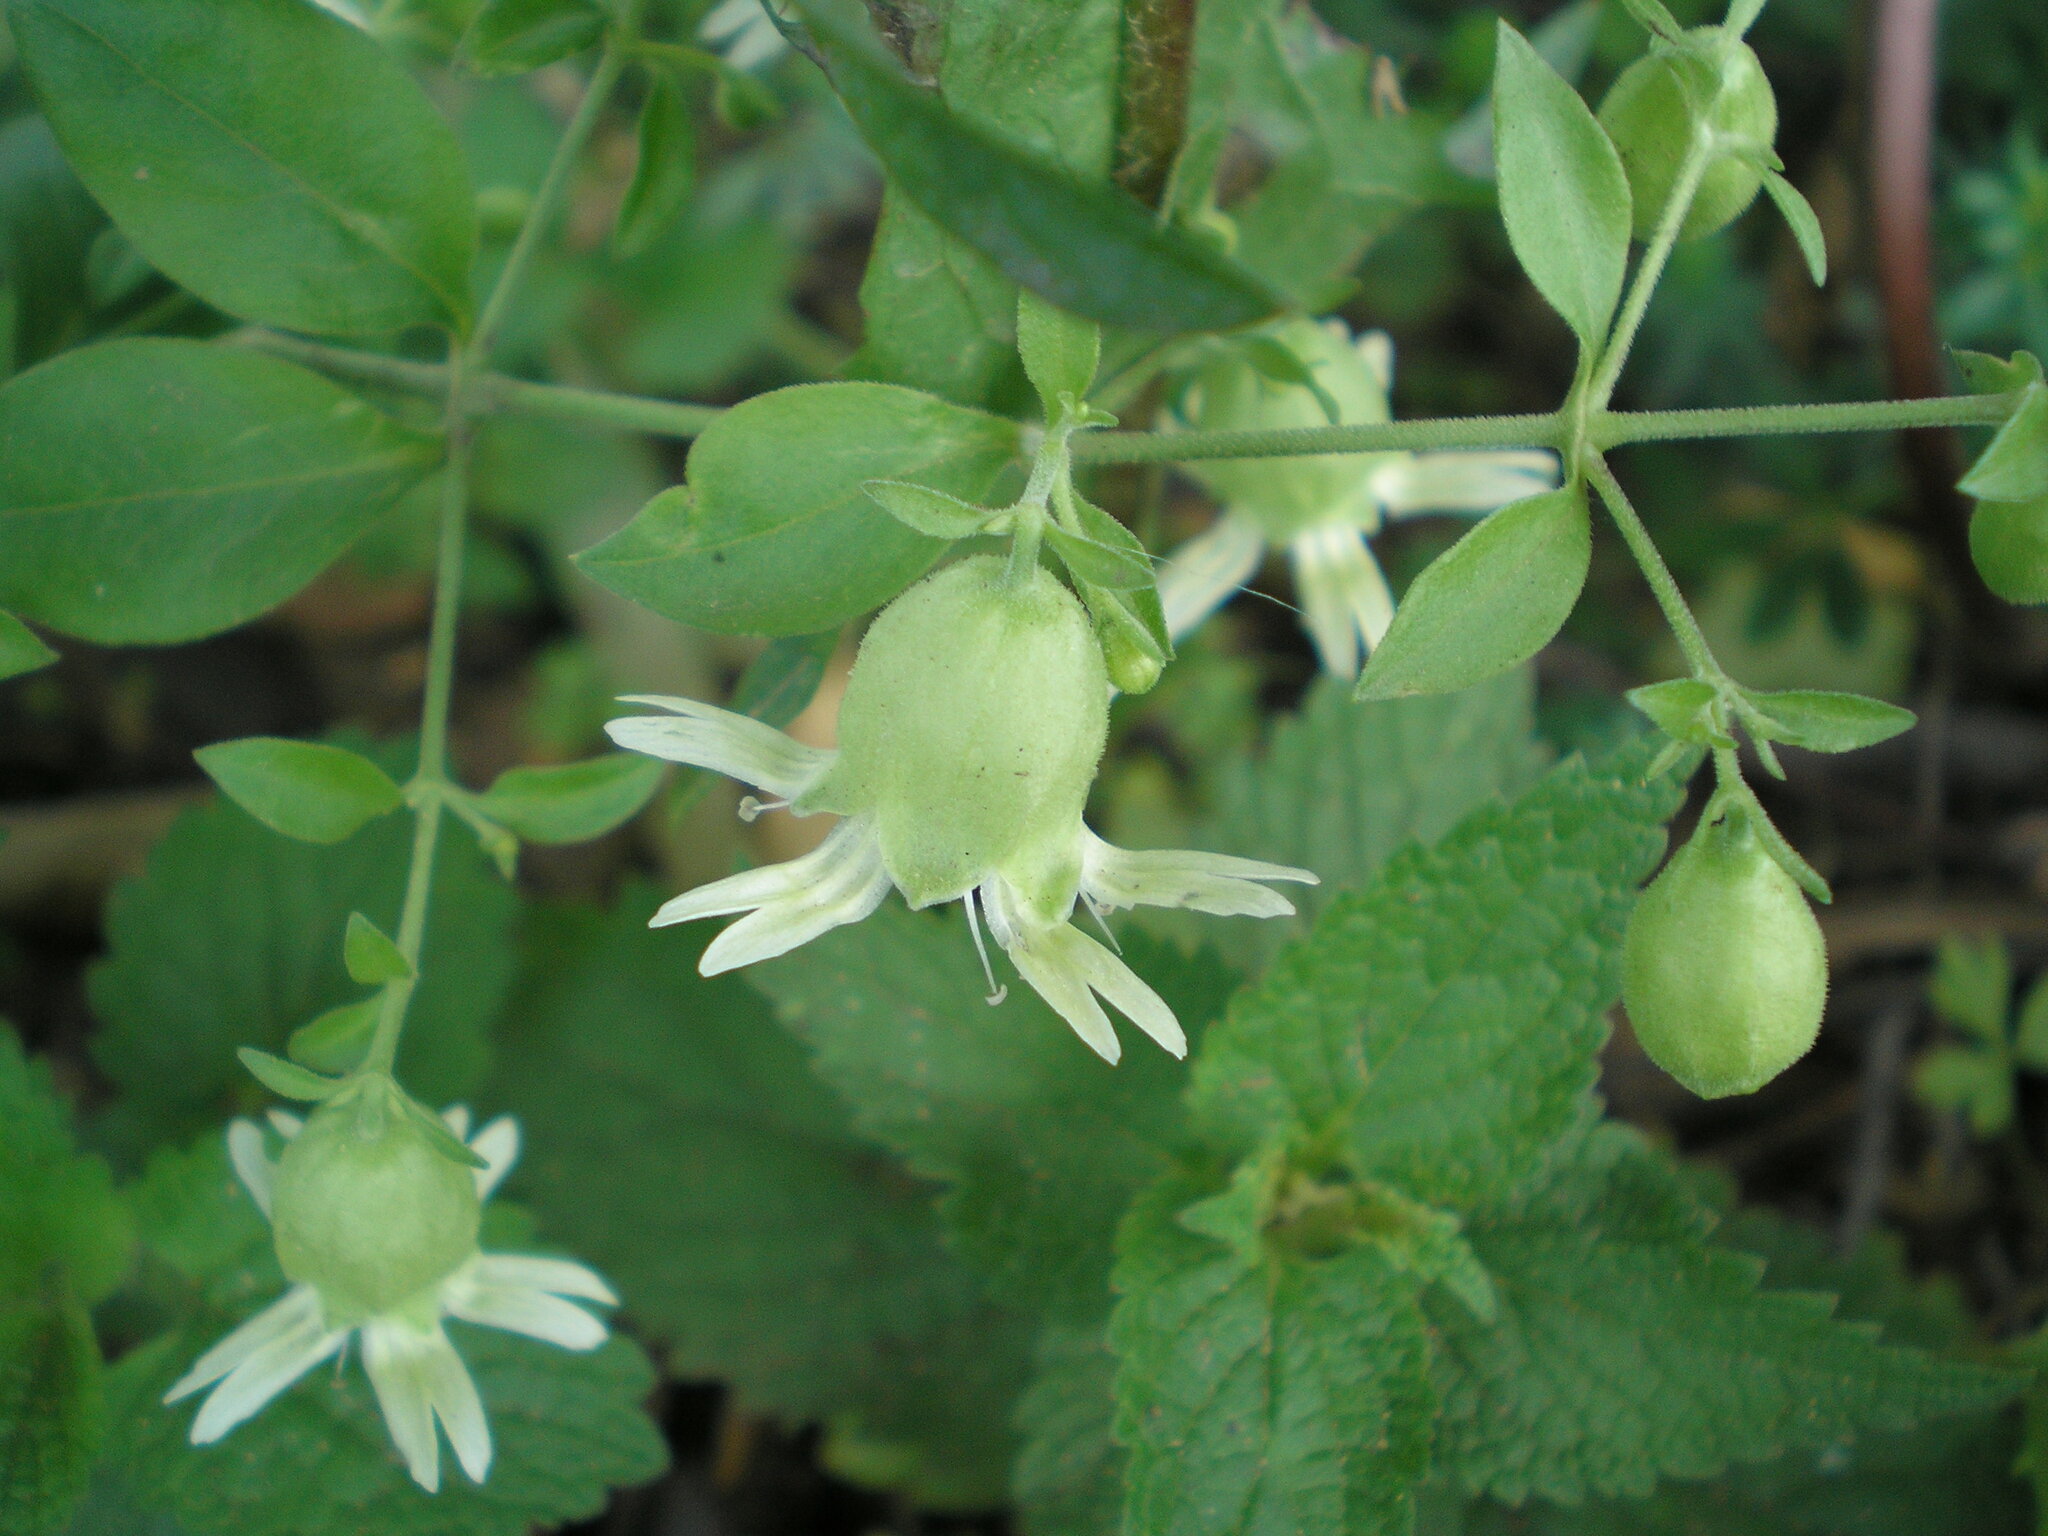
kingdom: Plantae
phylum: Tracheophyta
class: Magnoliopsida
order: Caryophyllales
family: Caryophyllaceae
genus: Silene
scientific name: Silene baccifera
